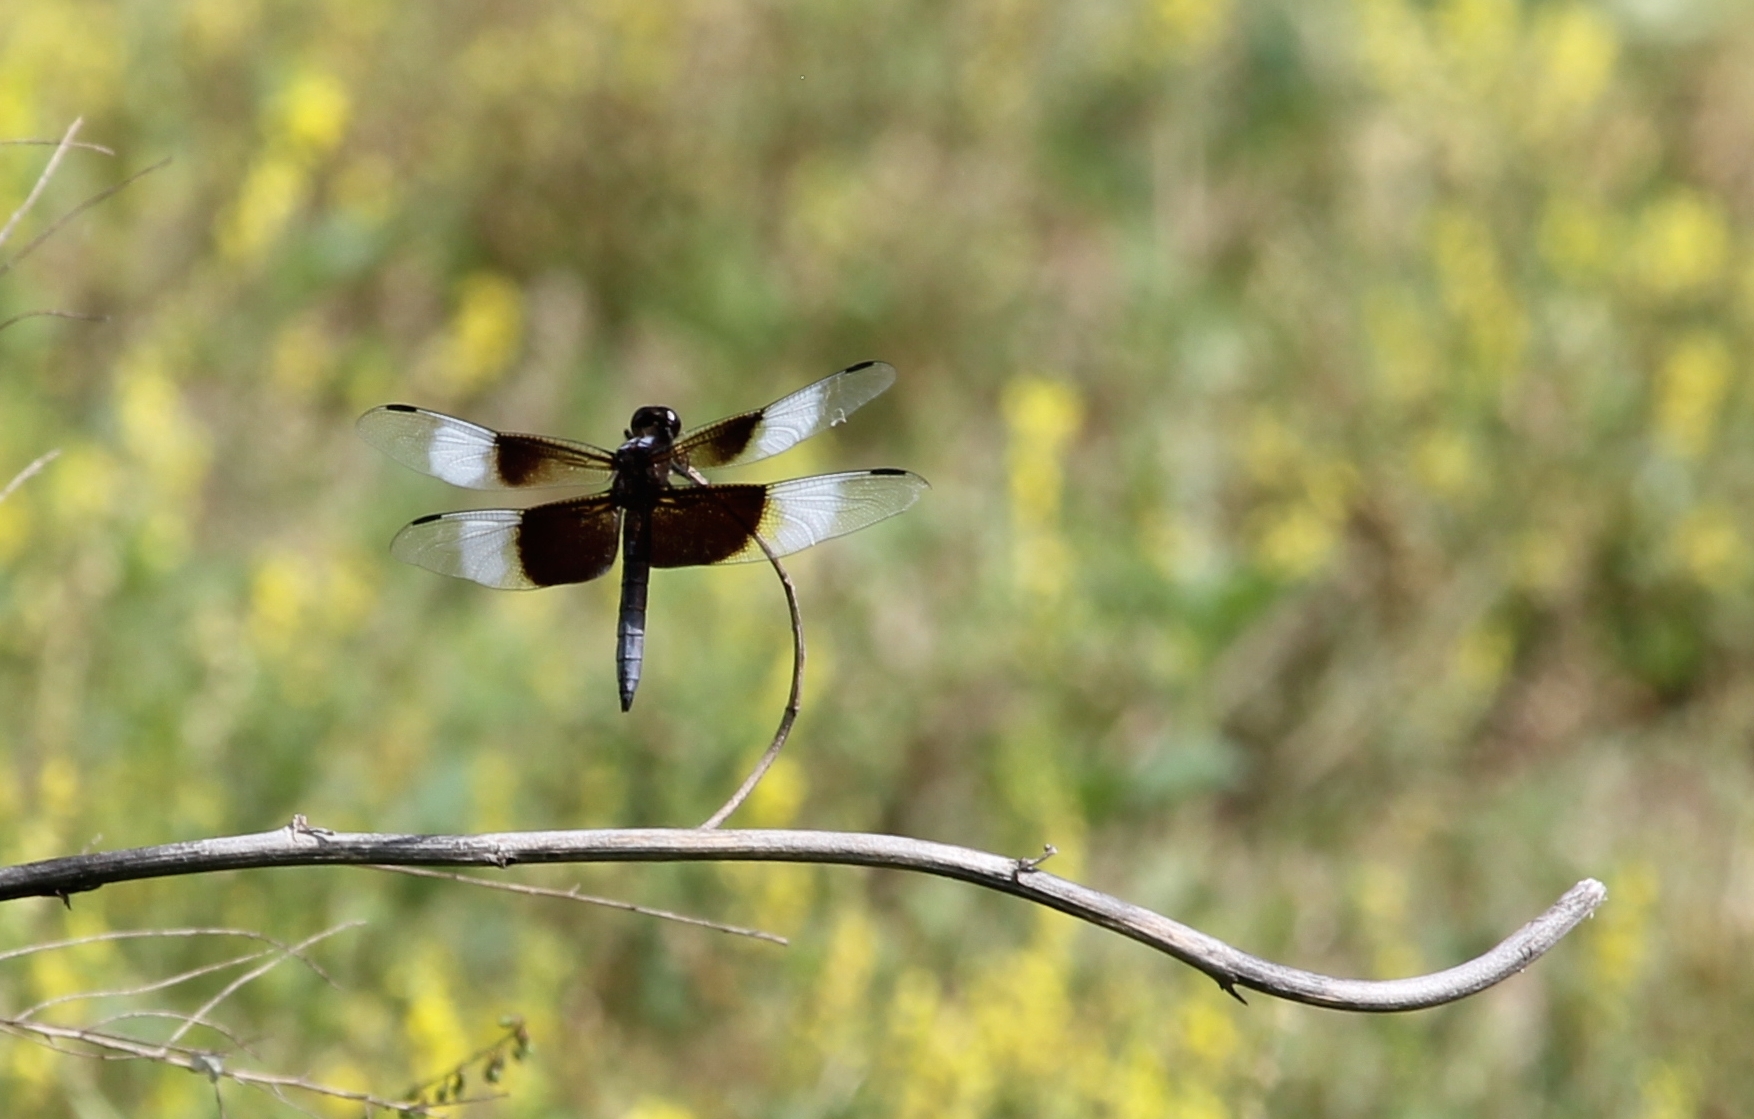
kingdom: Animalia
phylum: Arthropoda
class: Insecta
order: Odonata
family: Libellulidae
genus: Libellula
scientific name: Libellula luctuosa
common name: Widow skimmer
